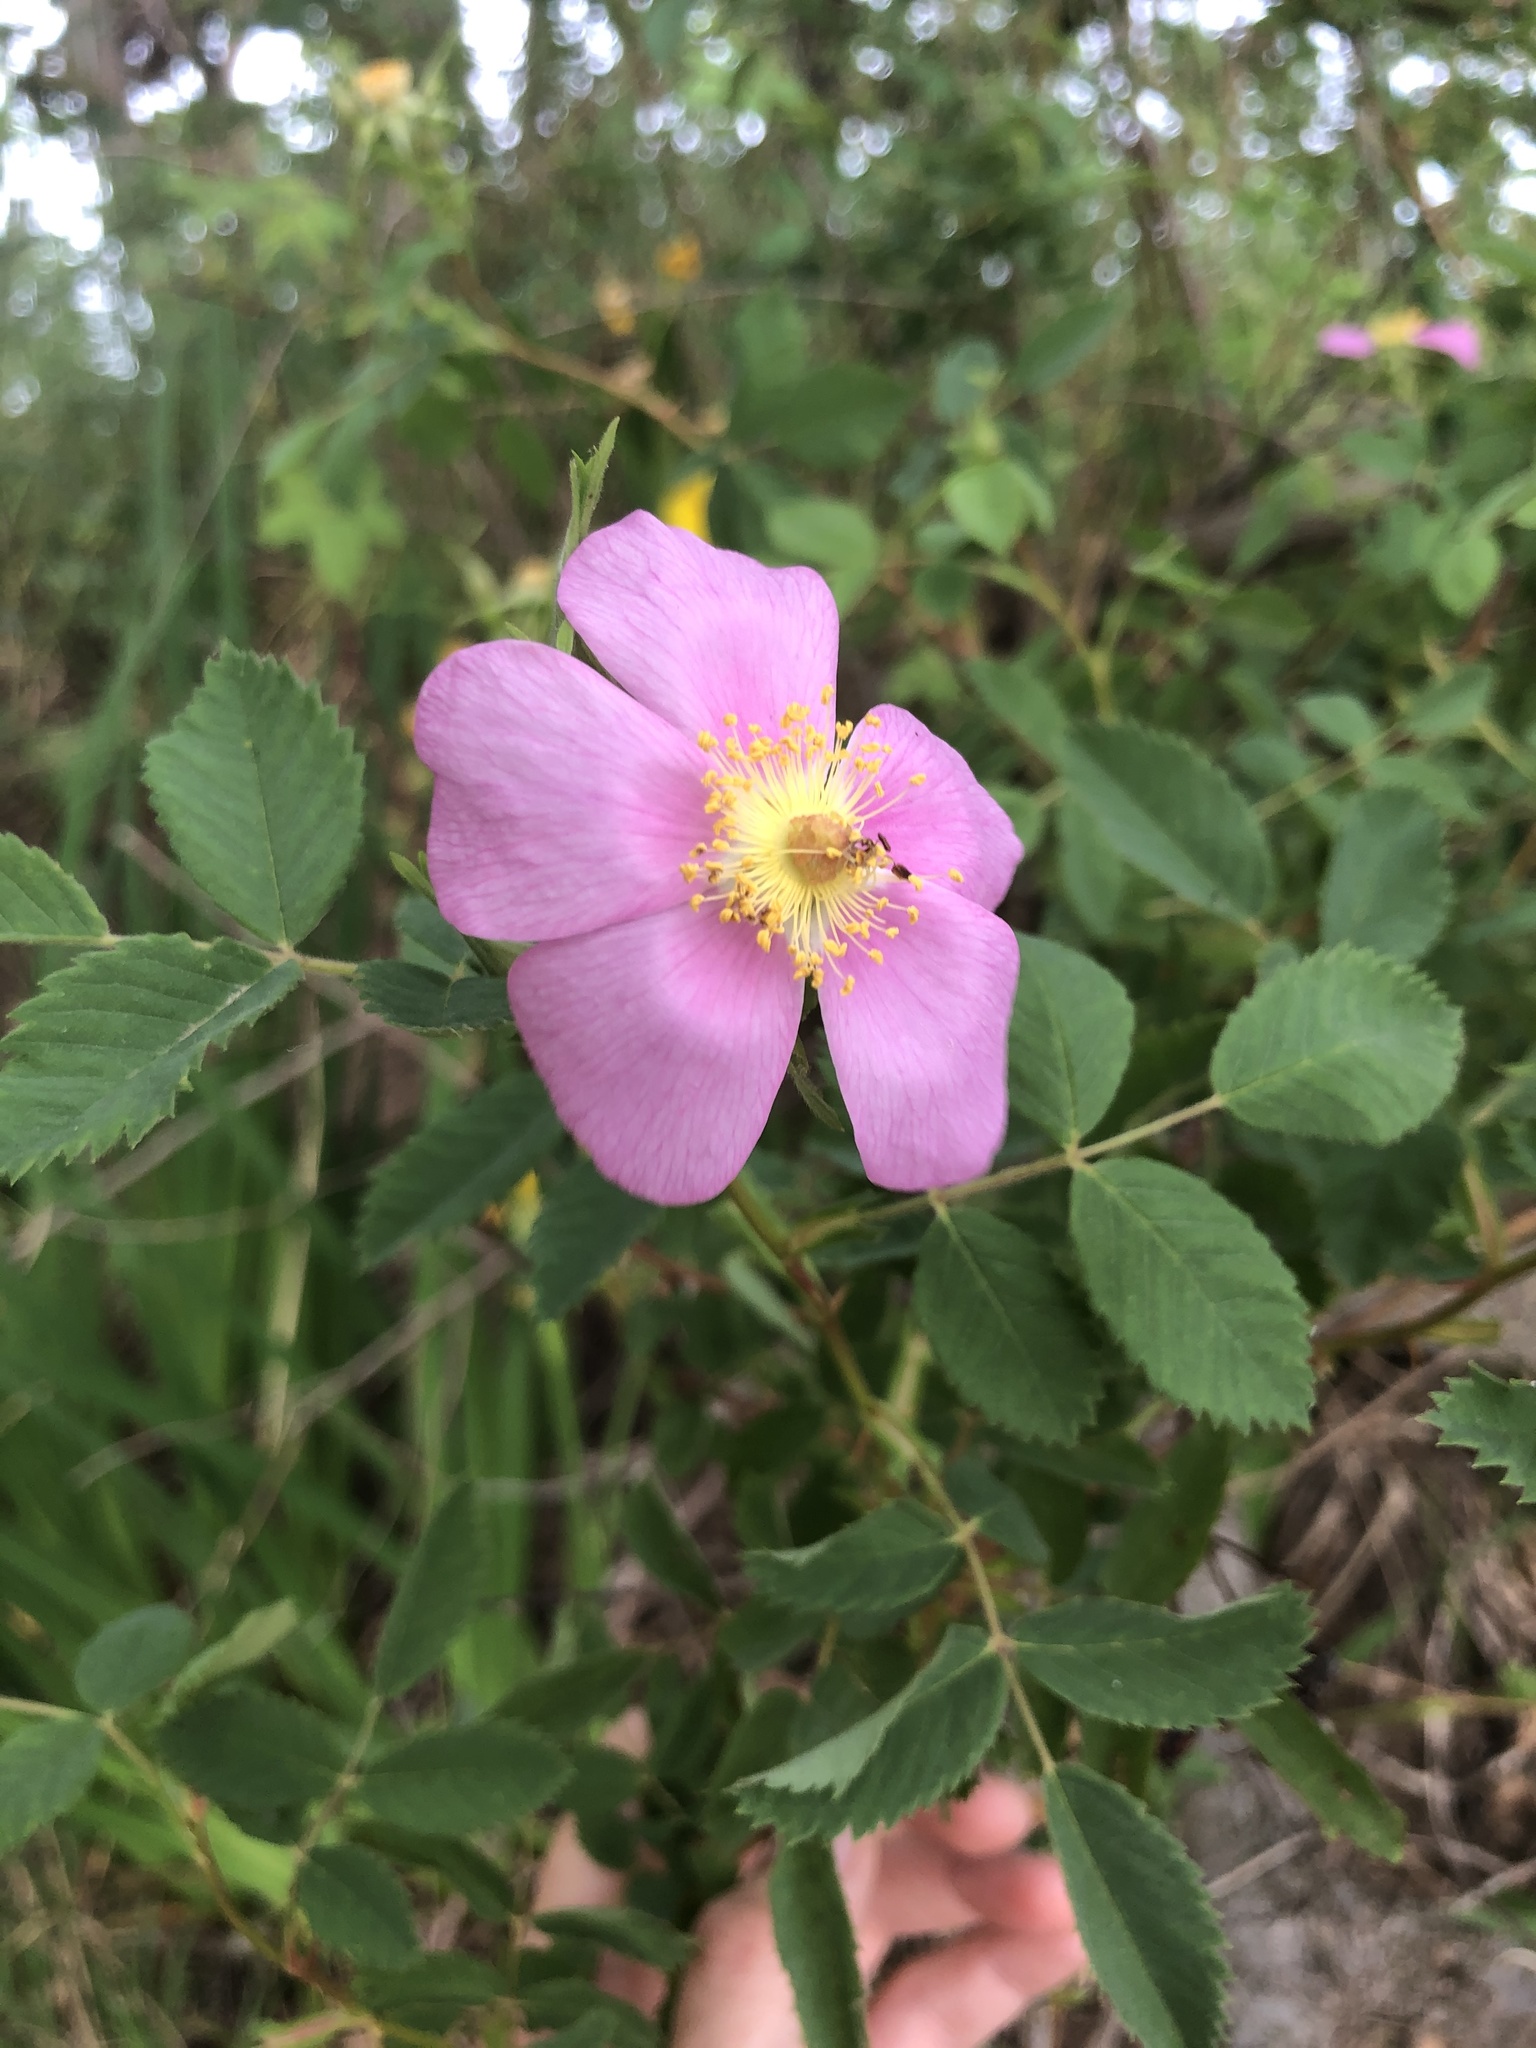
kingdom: Plantae
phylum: Tracheophyta
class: Magnoliopsida
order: Rosales
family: Rosaceae
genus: Rosa
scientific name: Rosa californica
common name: California rose
